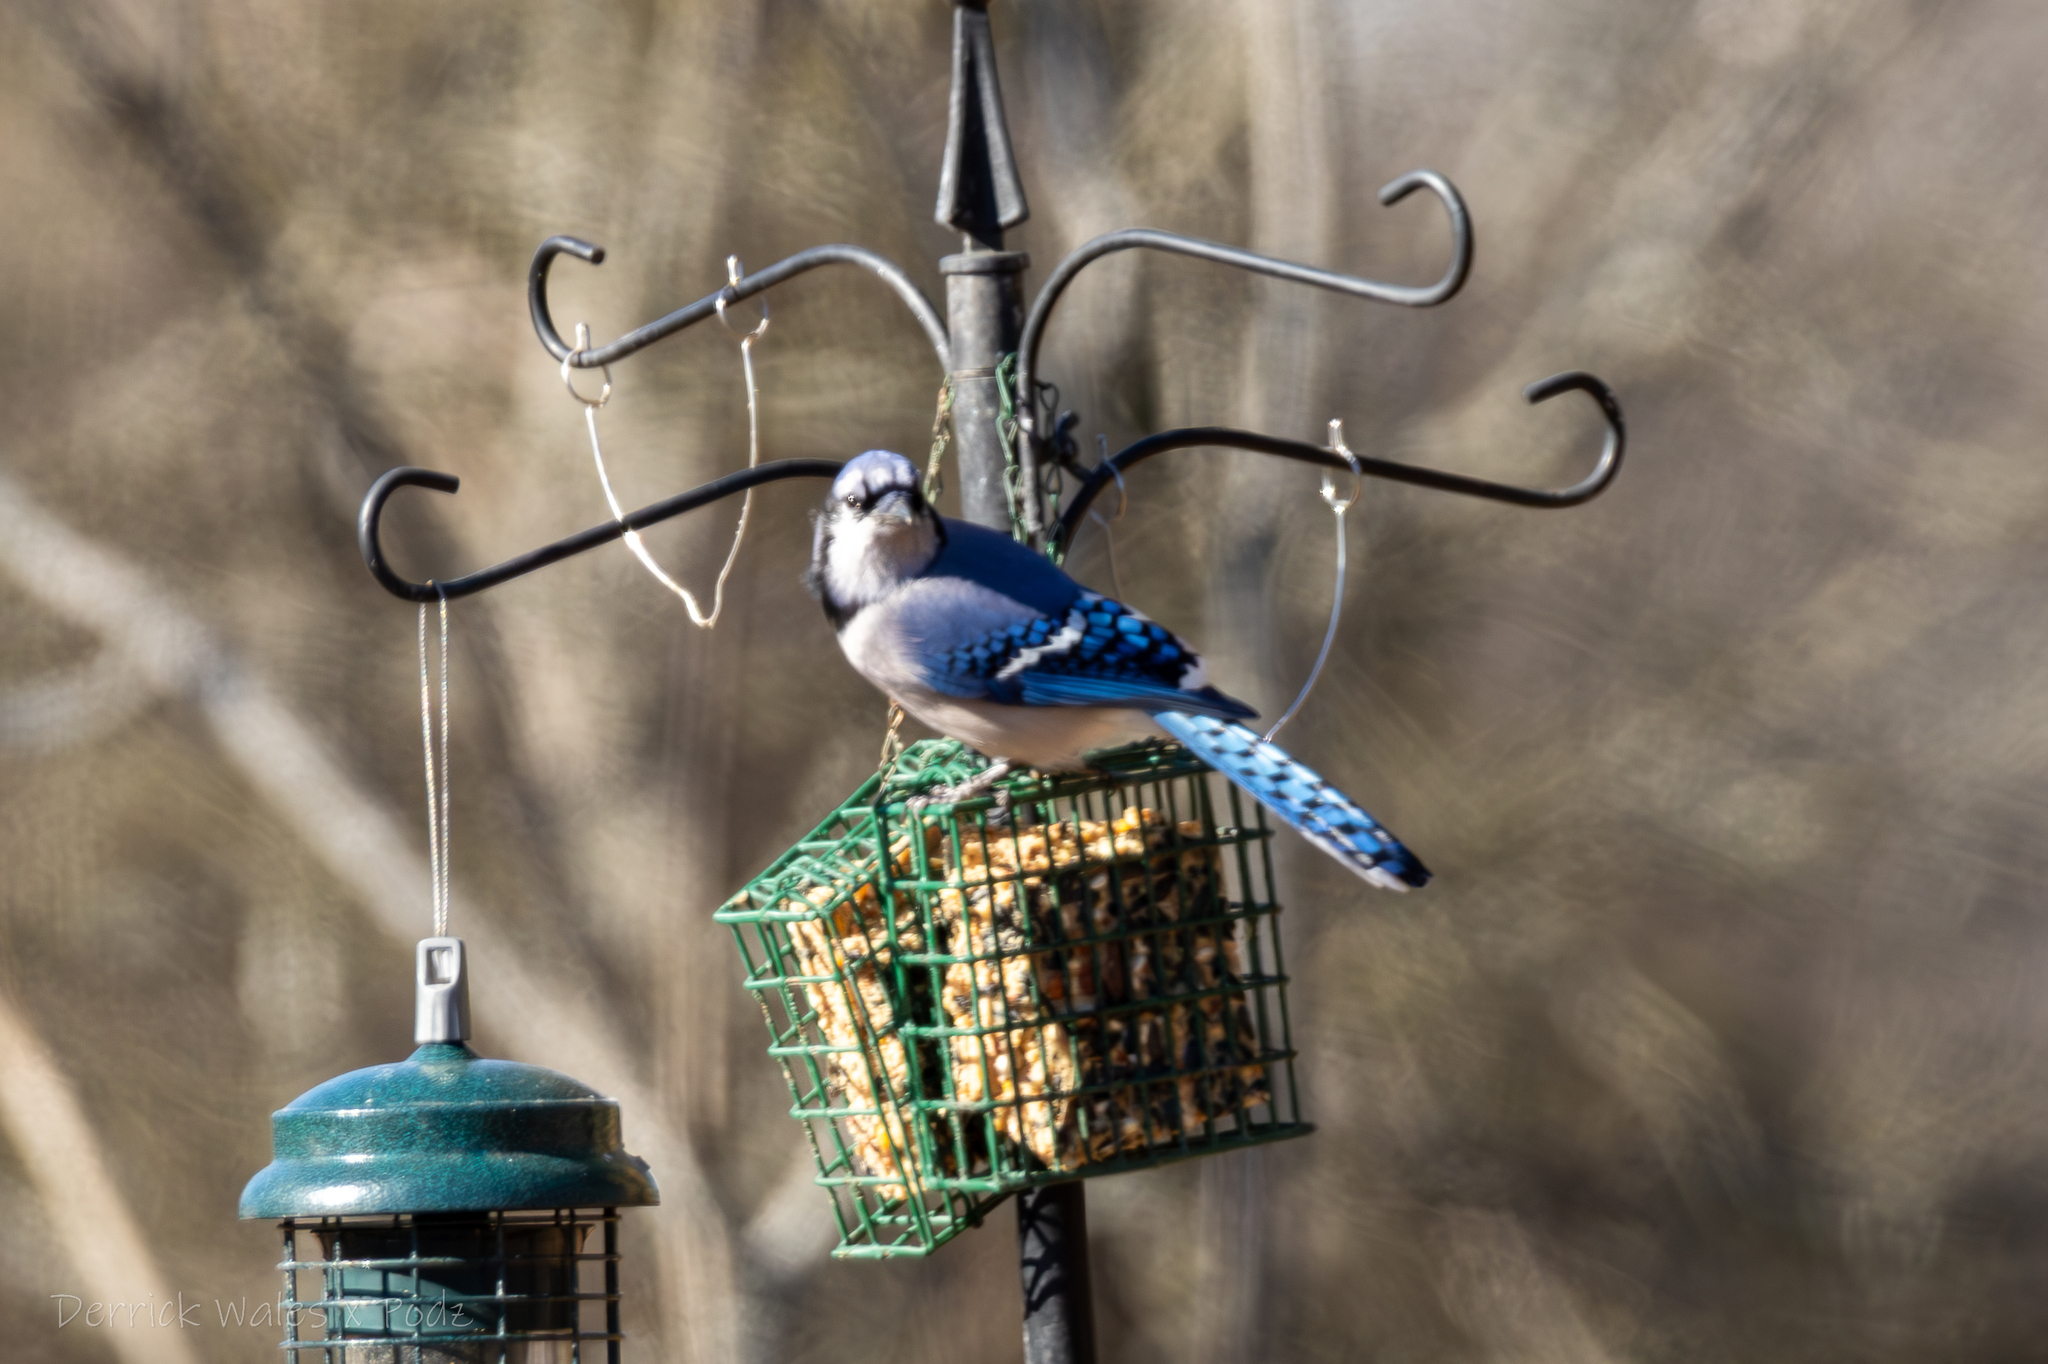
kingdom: Animalia
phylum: Chordata
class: Aves
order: Passeriformes
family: Corvidae
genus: Cyanocitta
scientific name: Cyanocitta cristata
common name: Blue jay
